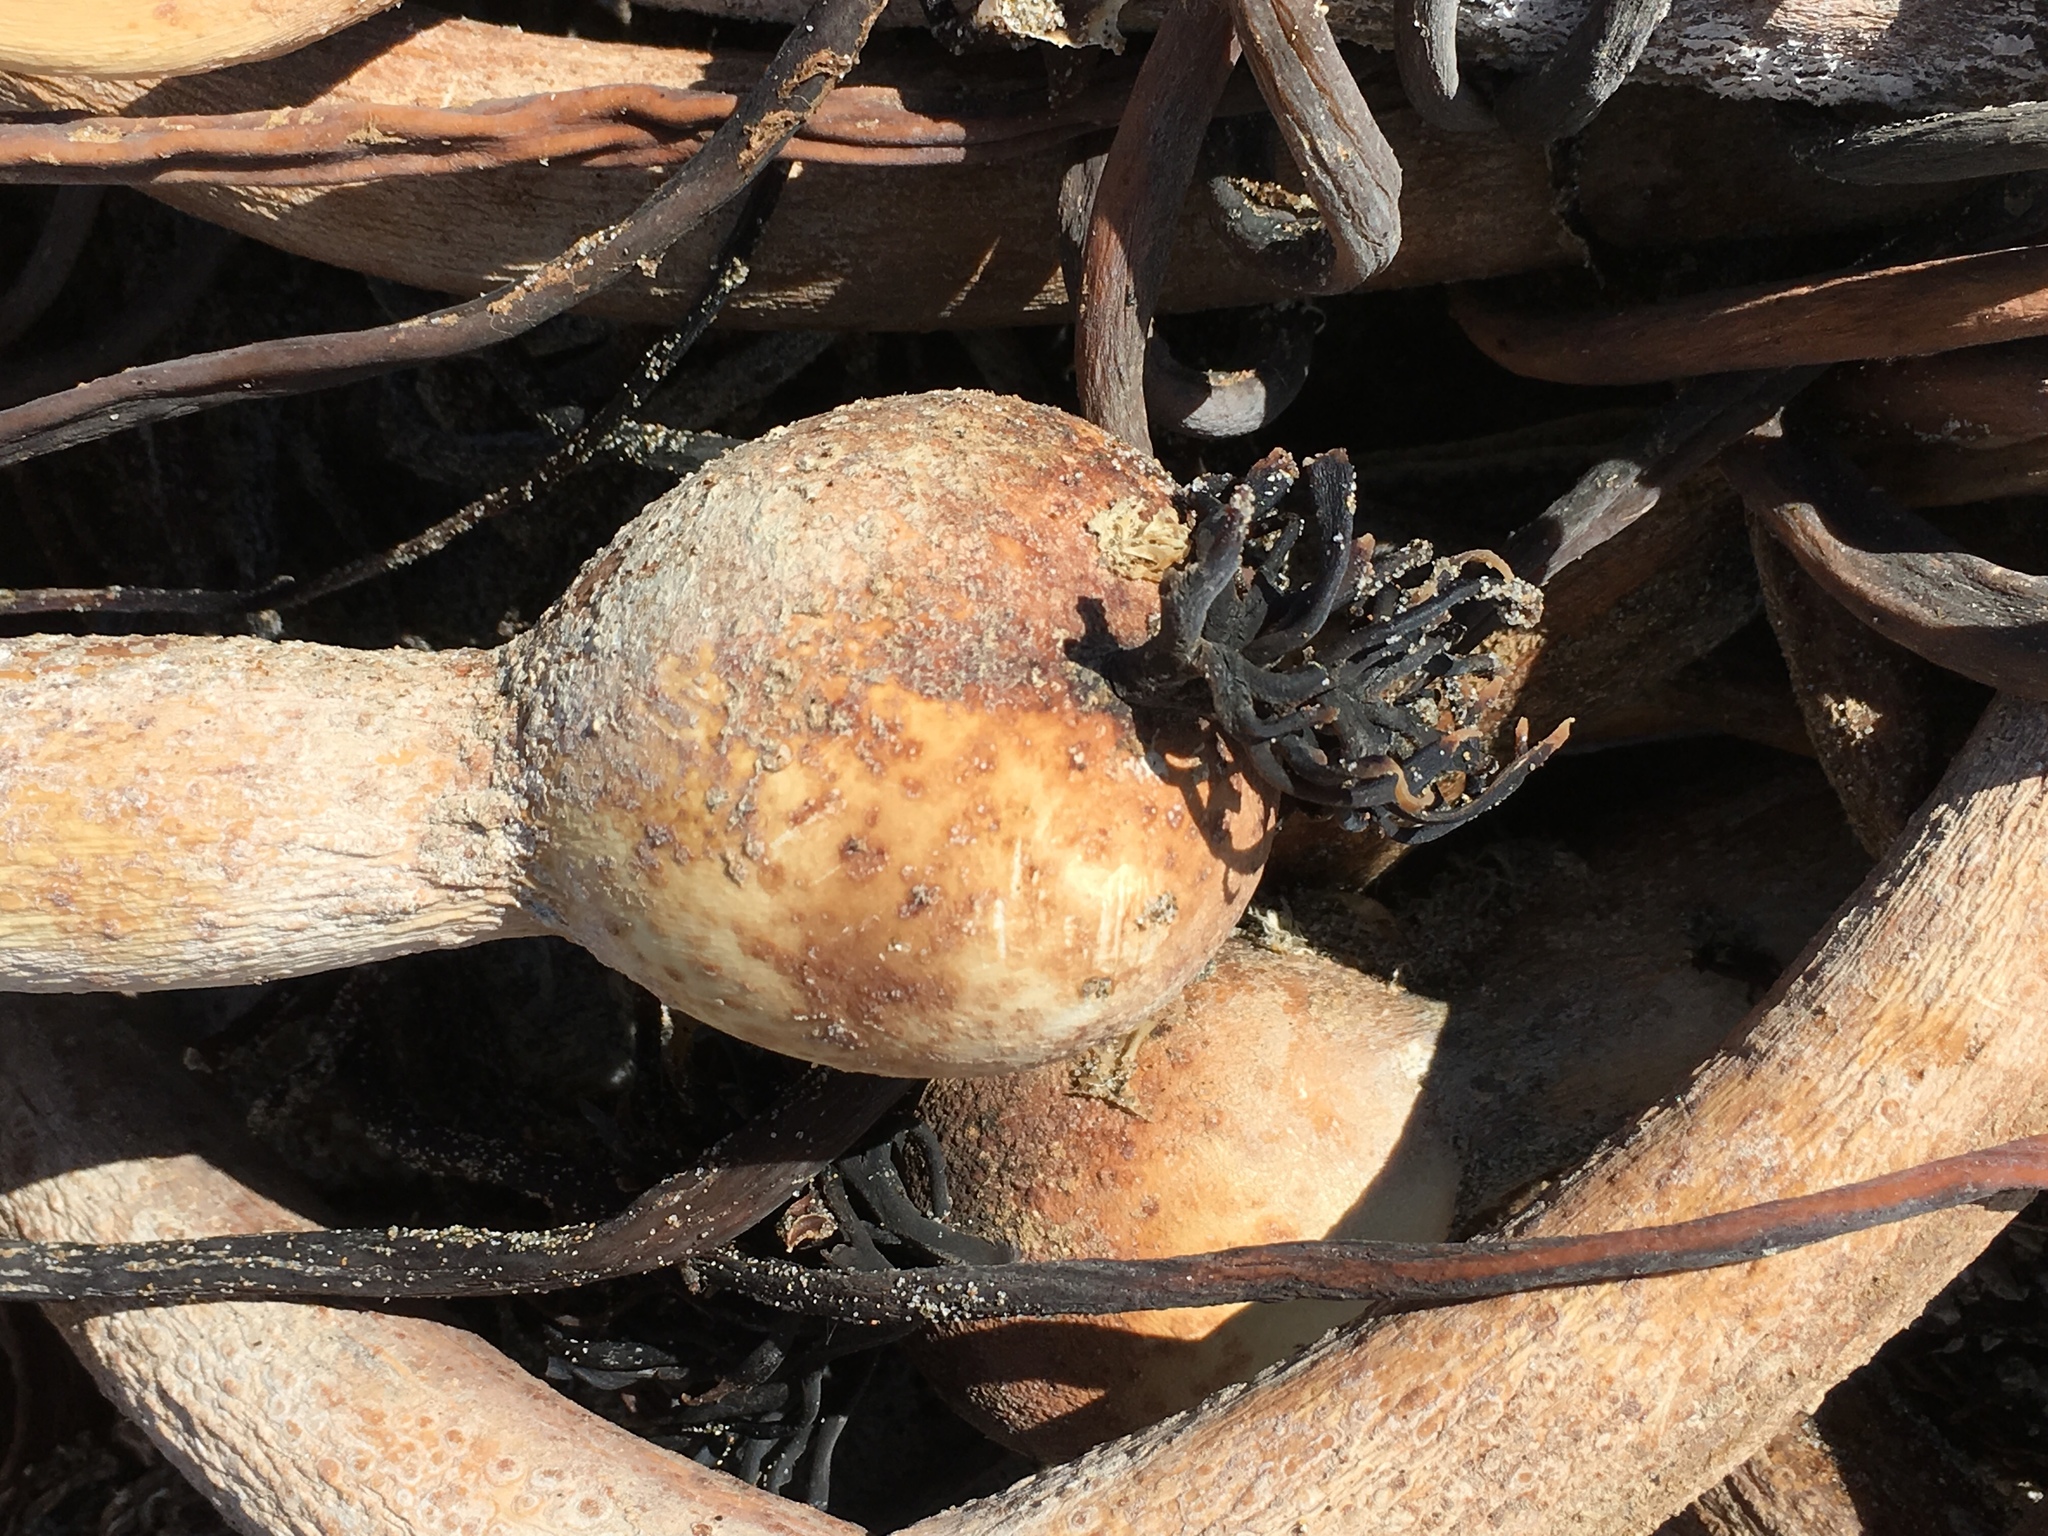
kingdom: Chromista
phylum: Ochrophyta
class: Phaeophyceae
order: Laminariales
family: Laminariaceae
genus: Nereocystis
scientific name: Nereocystis luetkeana
